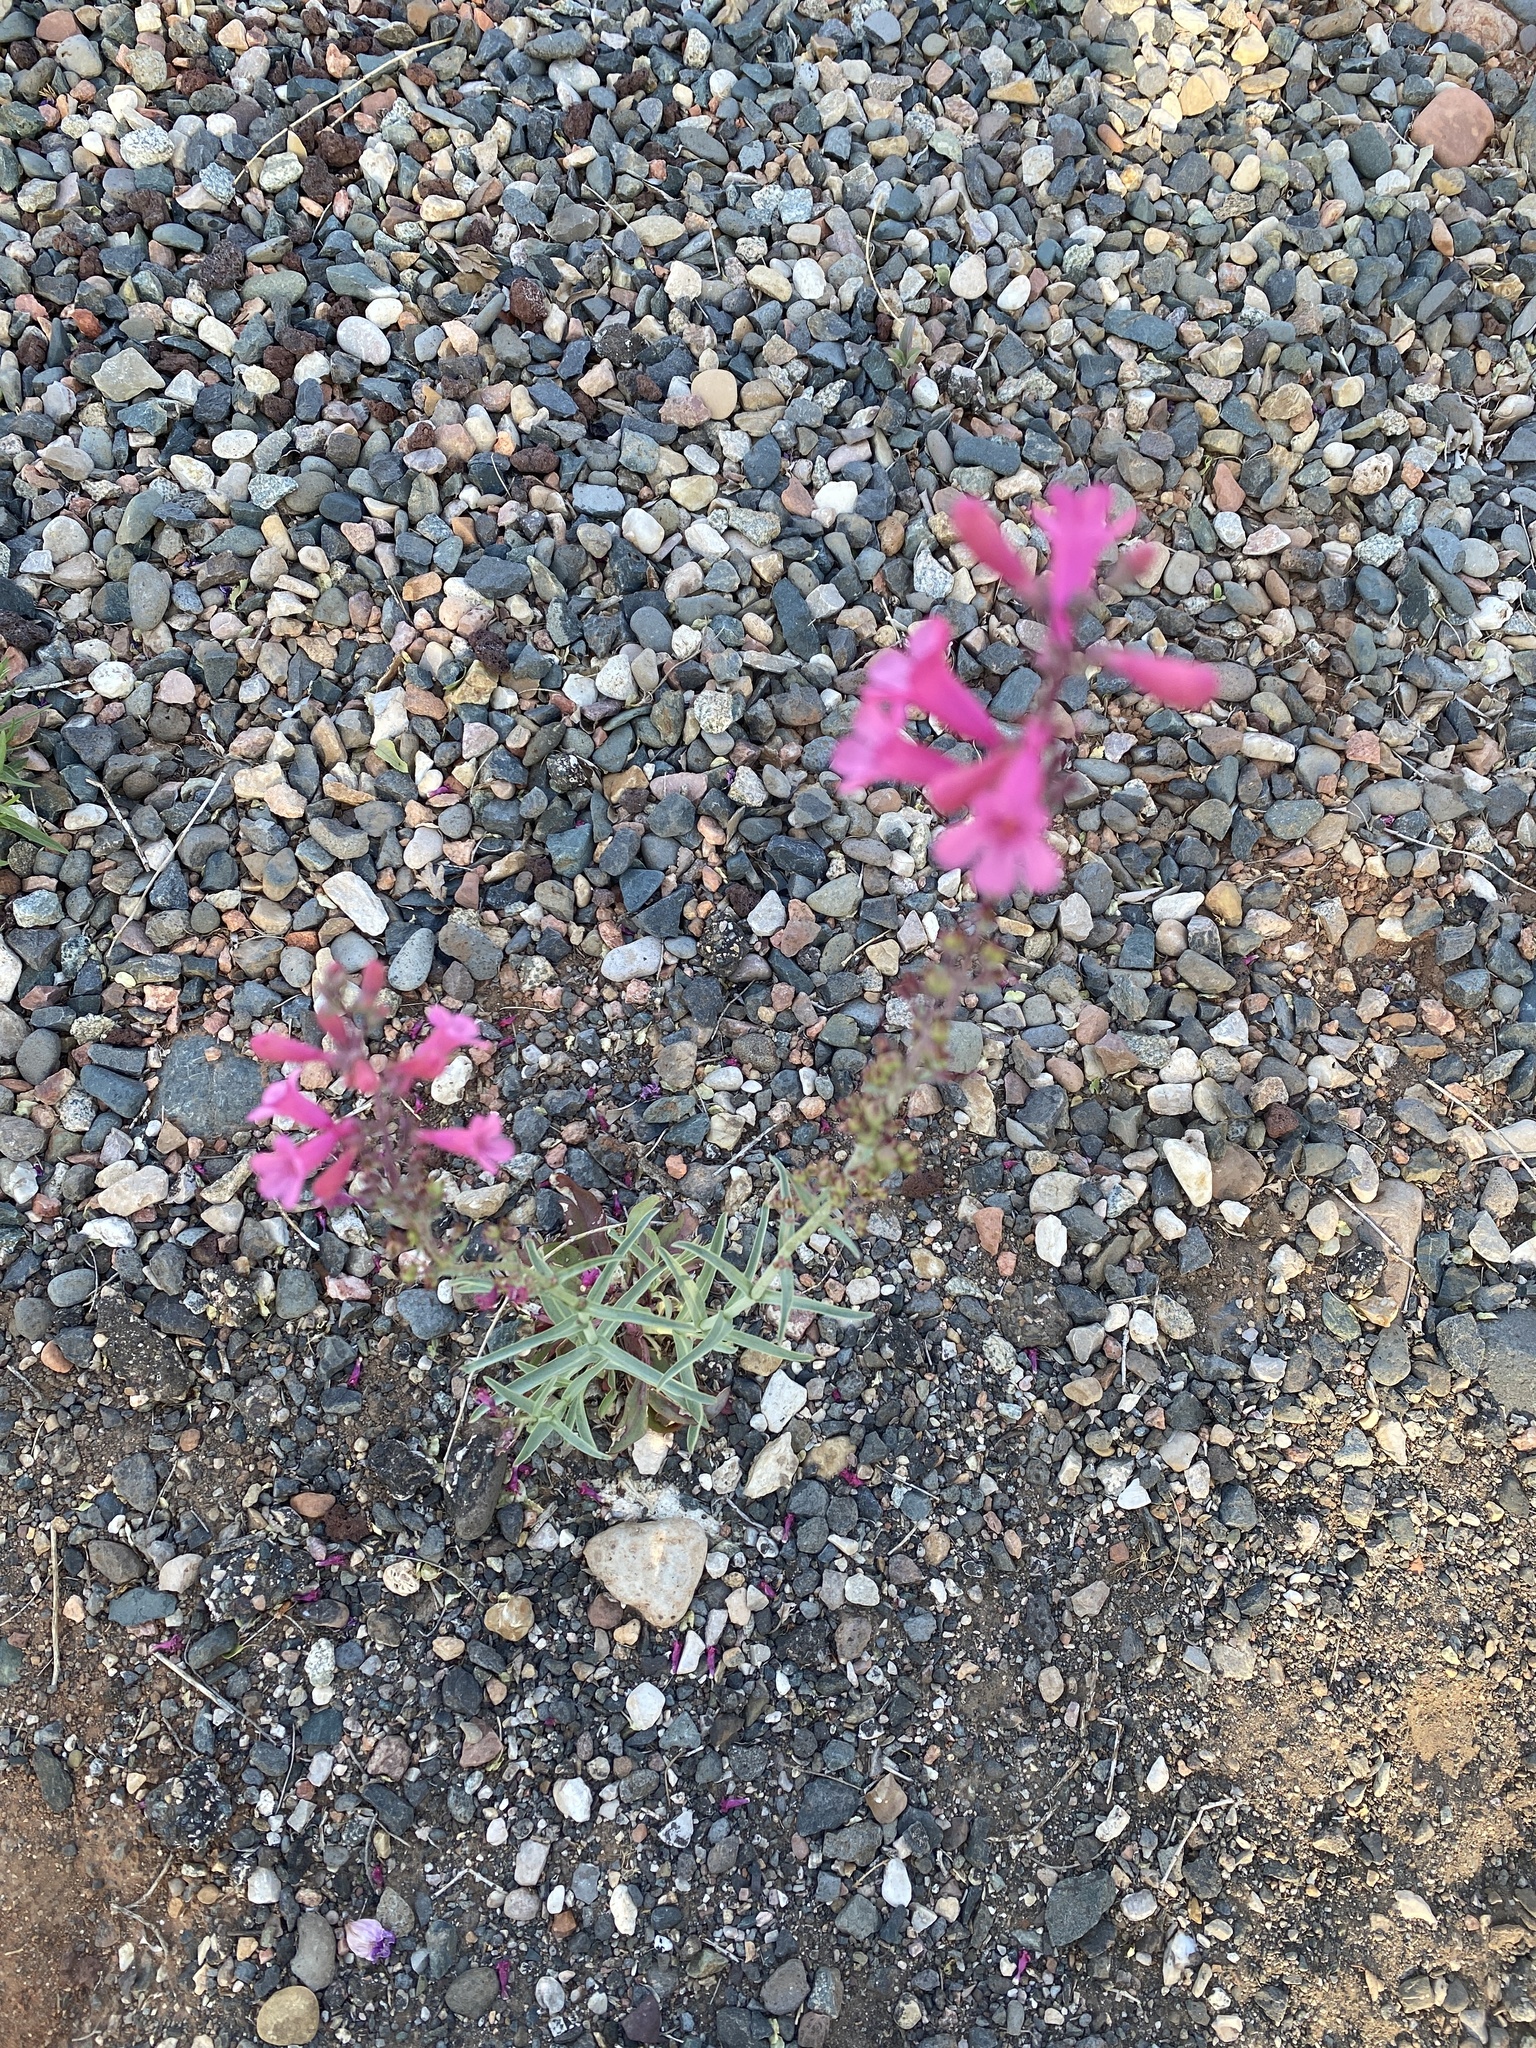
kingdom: Plantae
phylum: Tracheophyta
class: Magnoliopsida
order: Lamiales
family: Plantaginaceae
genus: Penstemon
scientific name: Penstemon parryi
